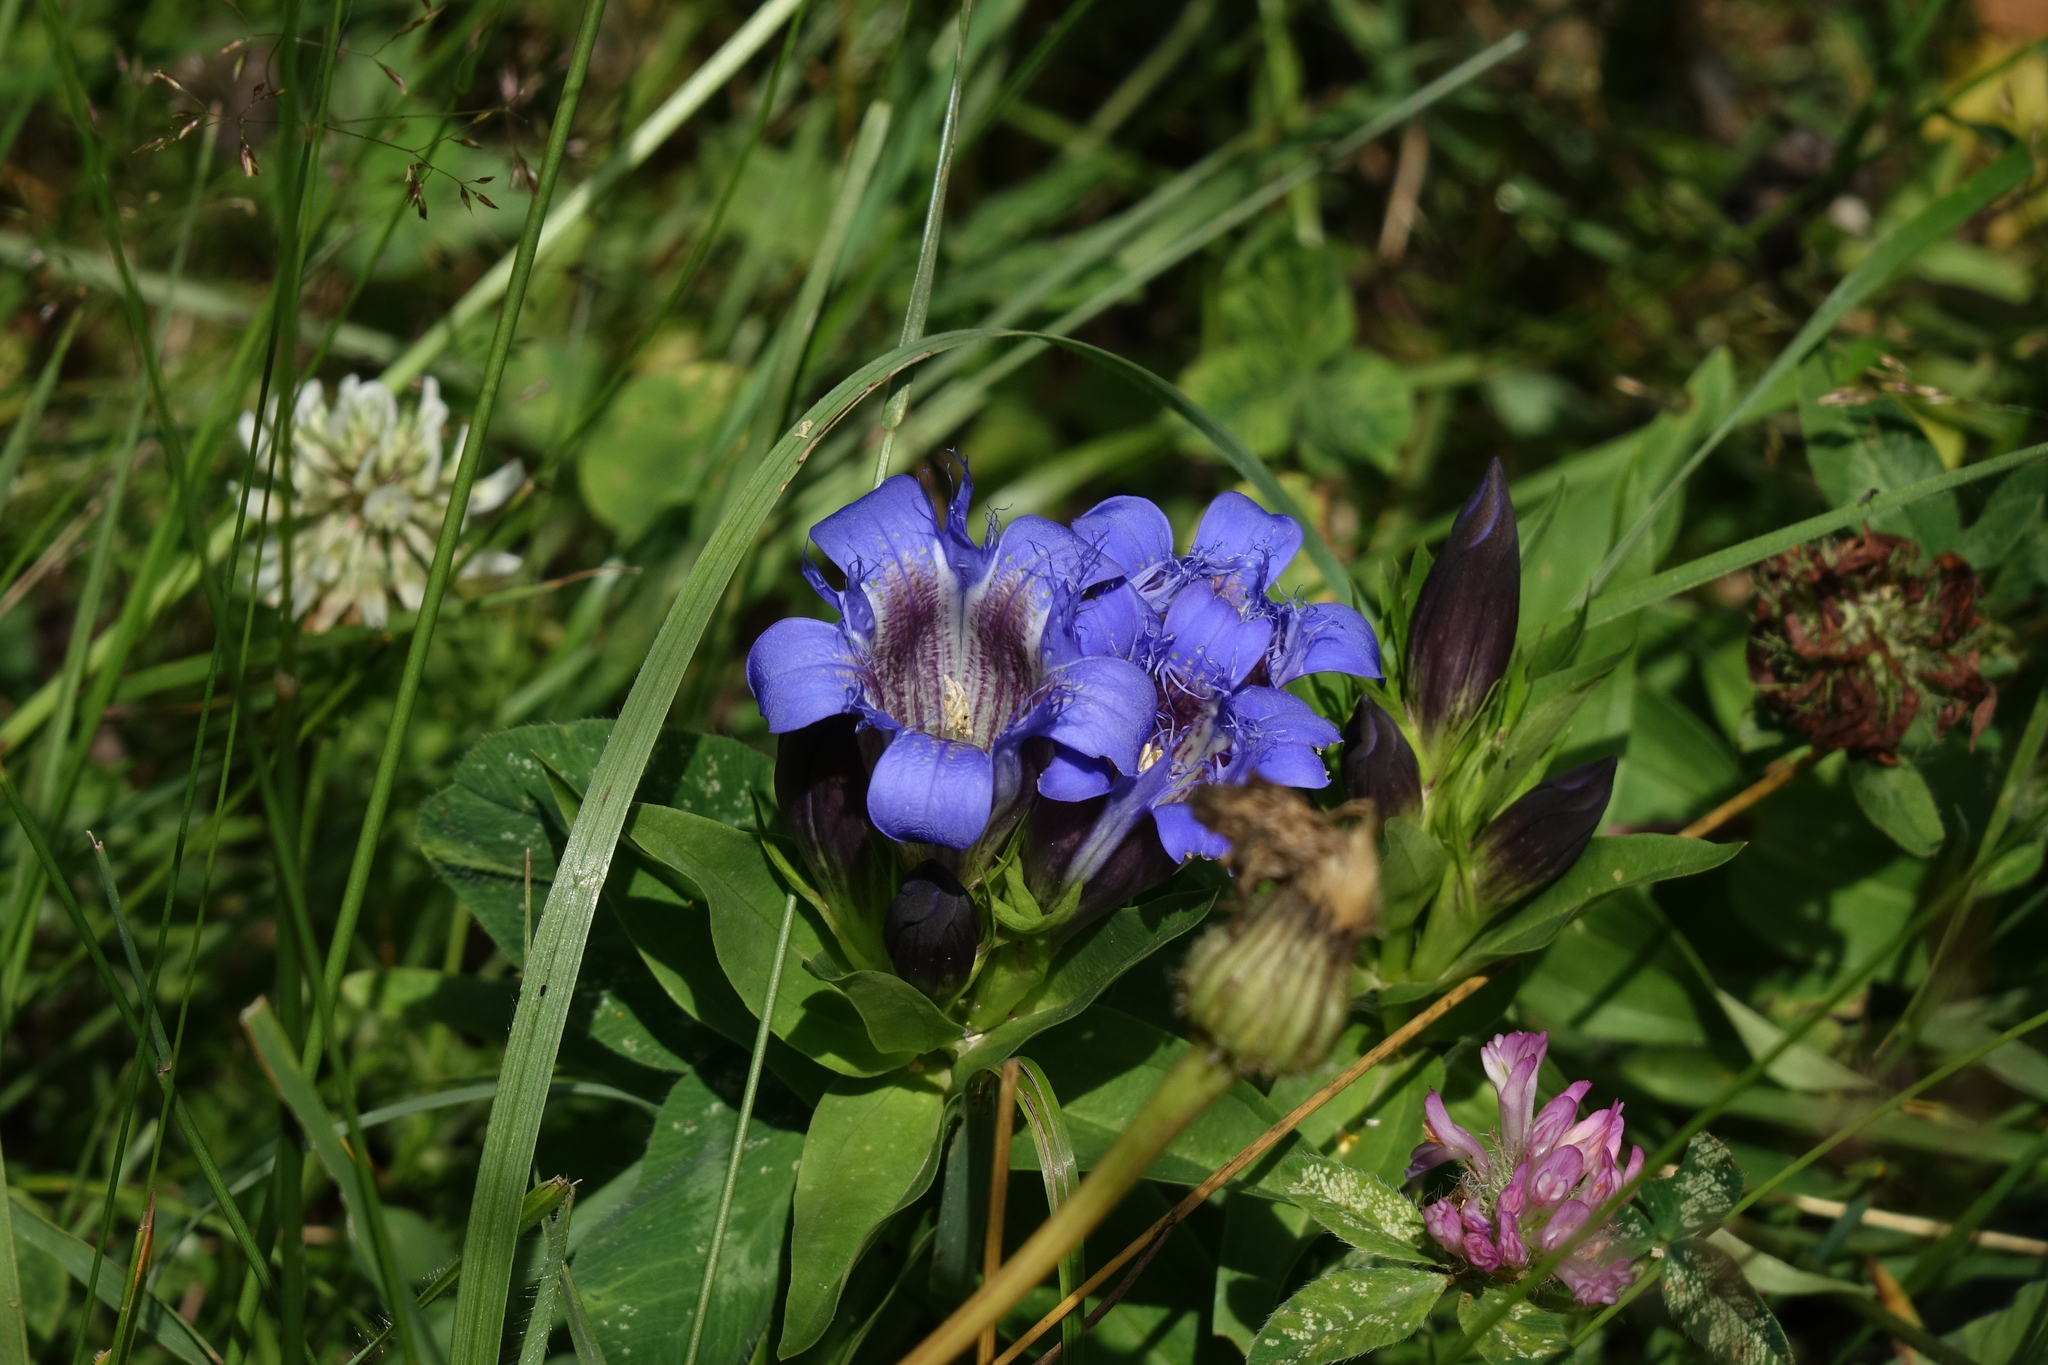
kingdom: Plantae
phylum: Tracheophyta
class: Magnoliopsida
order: Gentianales
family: Gentianaceae
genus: Gentiana
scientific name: Gentiana septemfida
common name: Crested gentian
